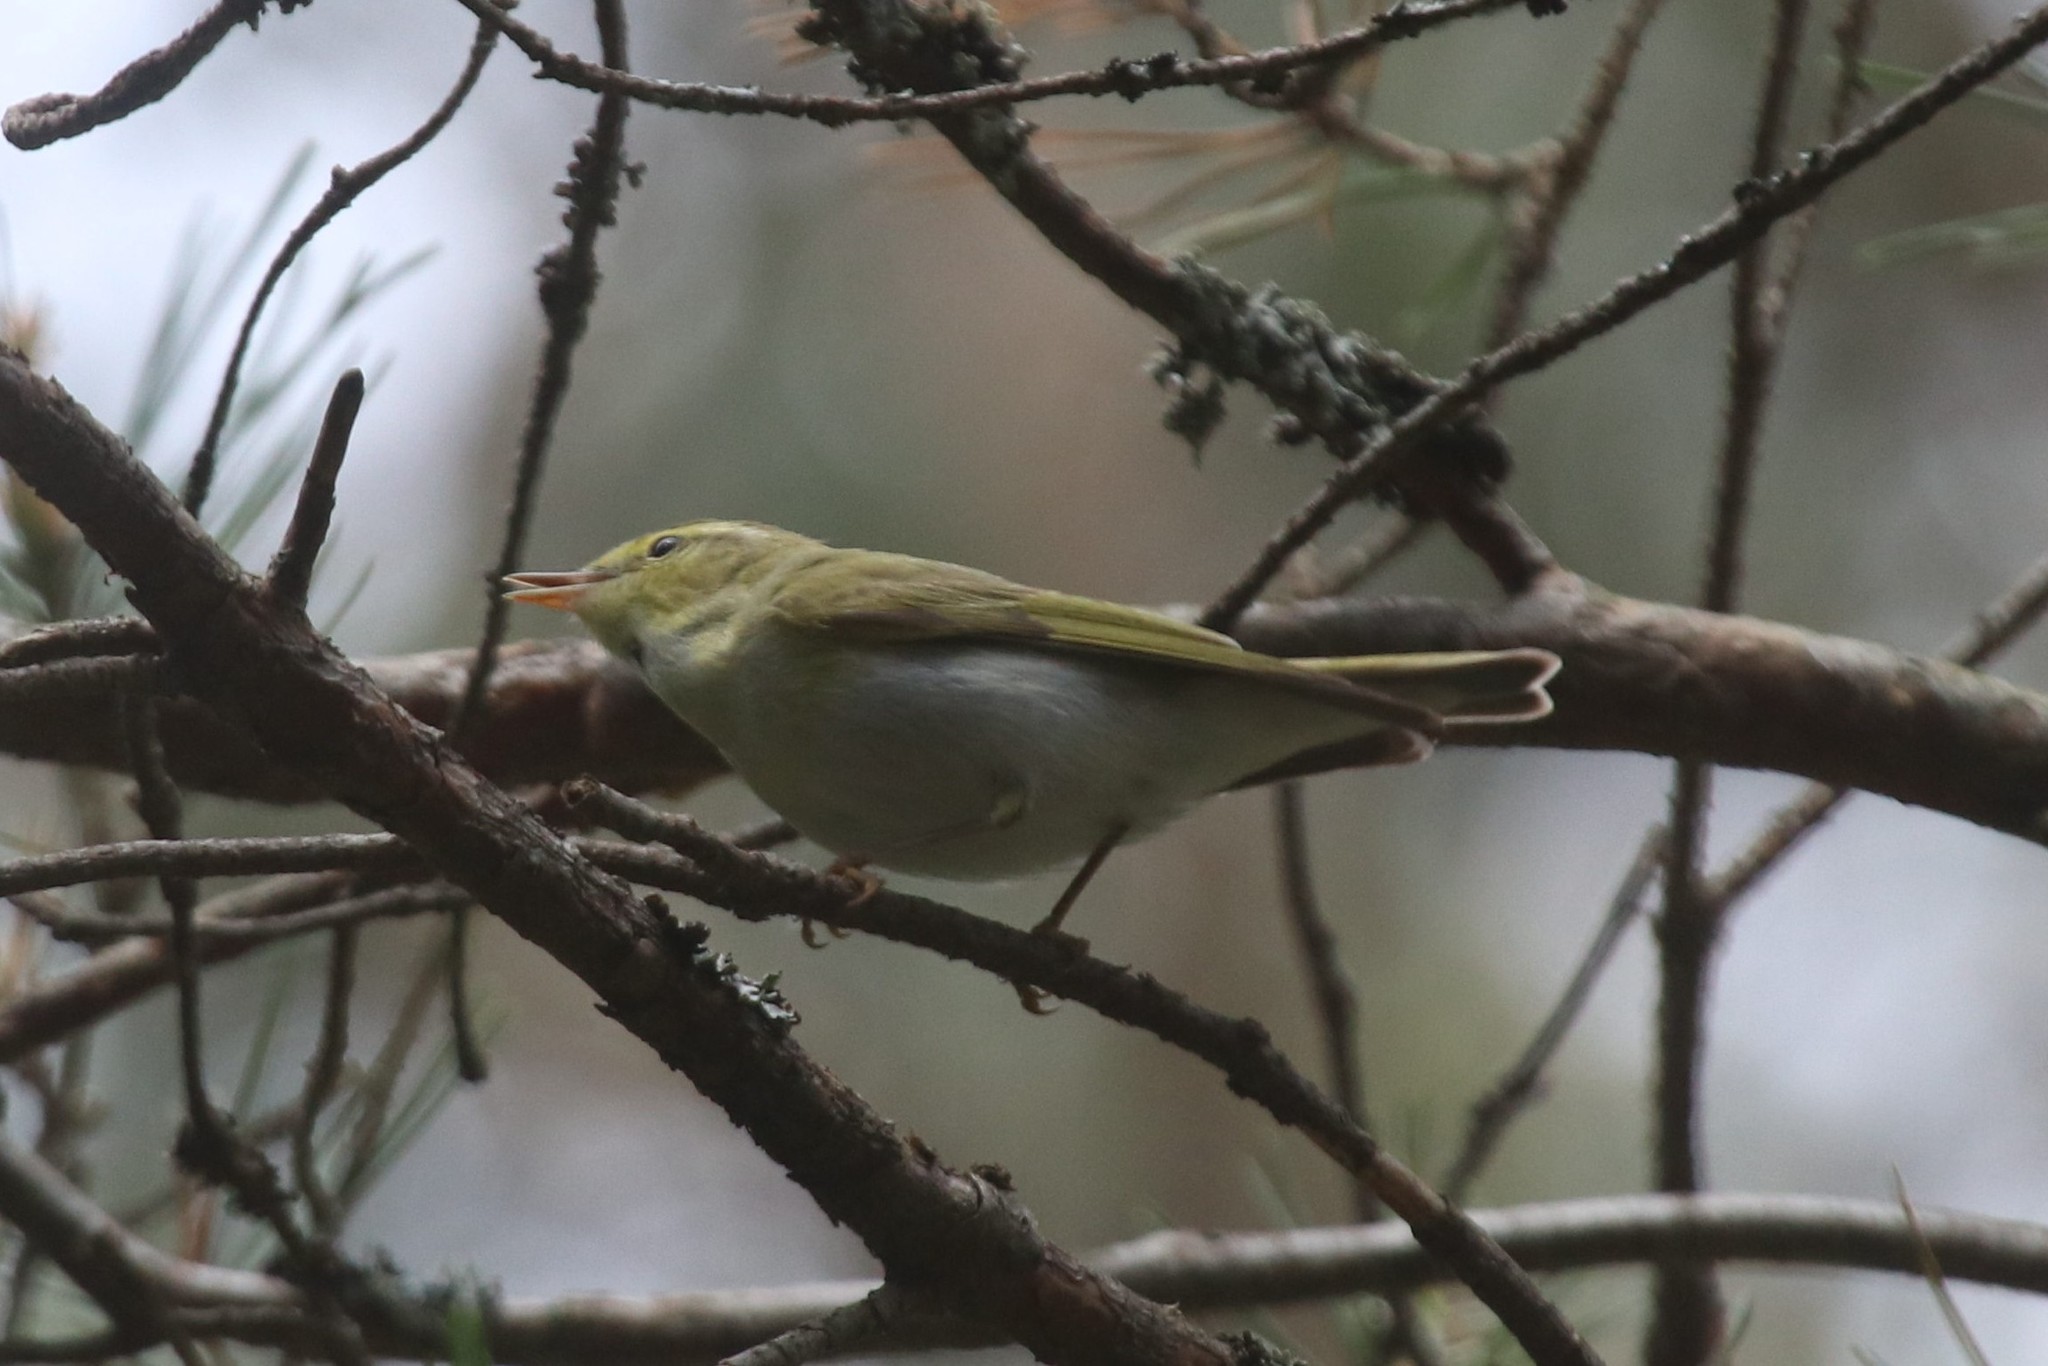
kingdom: Animalia
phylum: Chordata
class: Aves
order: Passeriformes
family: Phylloscopidae
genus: Phylloscopus
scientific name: Phylloscopus sibillatrix
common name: Wood warbler
